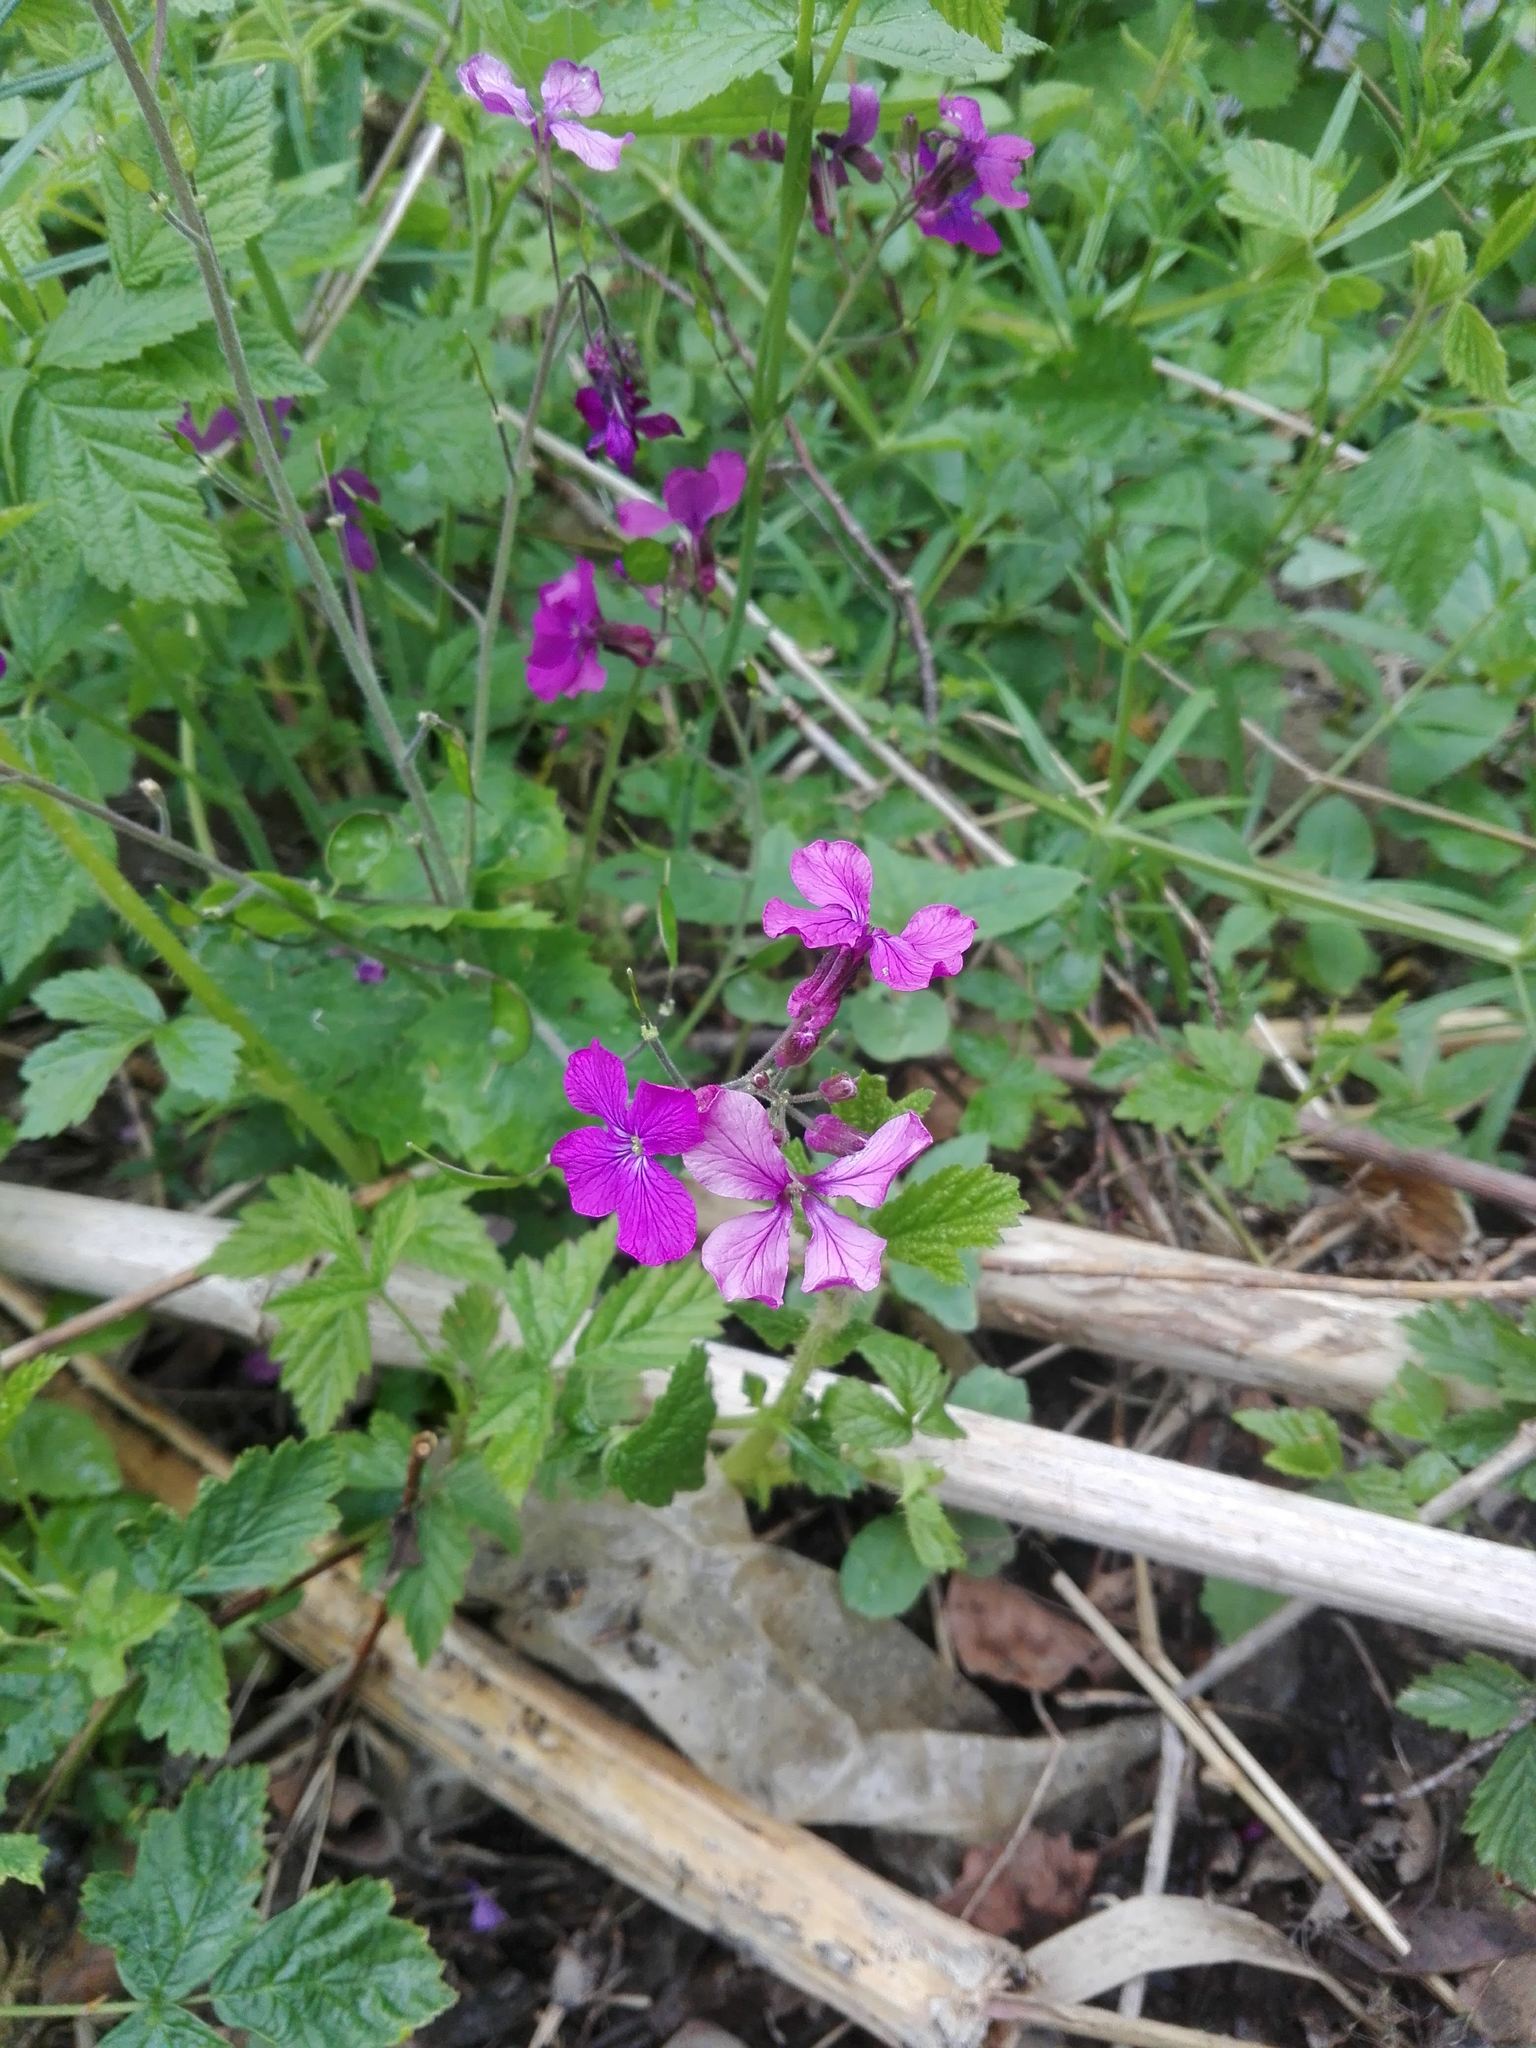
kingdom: Plantae
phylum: Tracheophyta
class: Magnoliopsida
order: Brassicales
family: Brassicaceae
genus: Lunaria
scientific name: Lunaria annua
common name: Honesty
